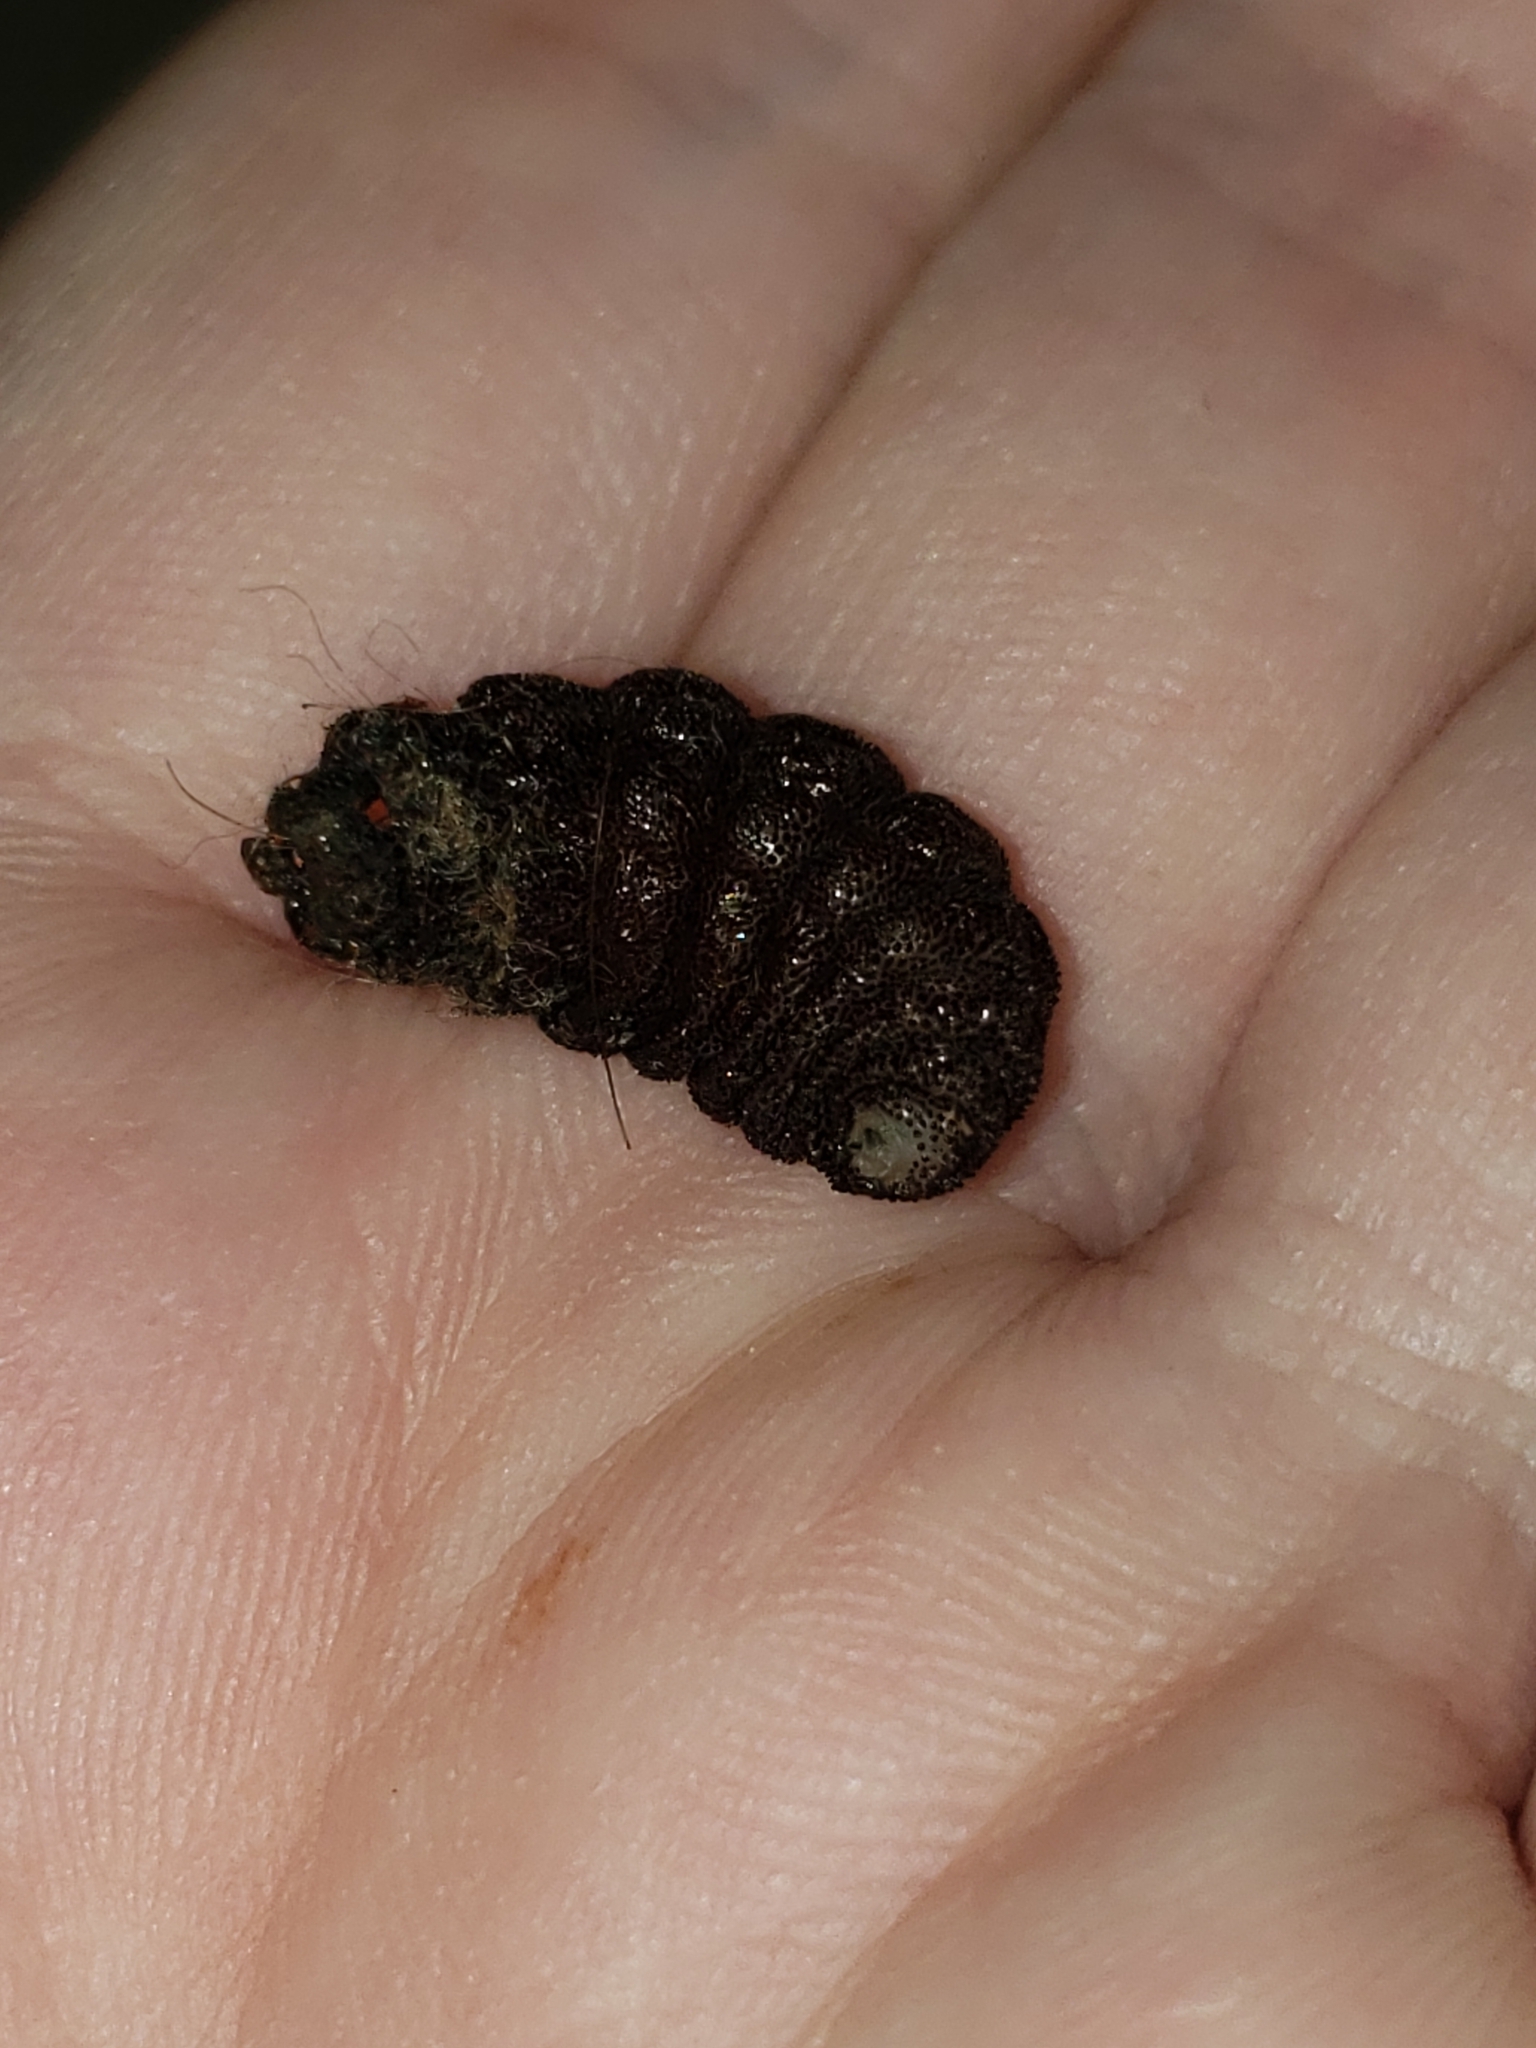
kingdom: Animalia
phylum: Arthropoda
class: Insecta
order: Diptera
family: Oestridae
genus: Cuterebra
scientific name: Cuterebra fontinella
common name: Mouse bot fly
